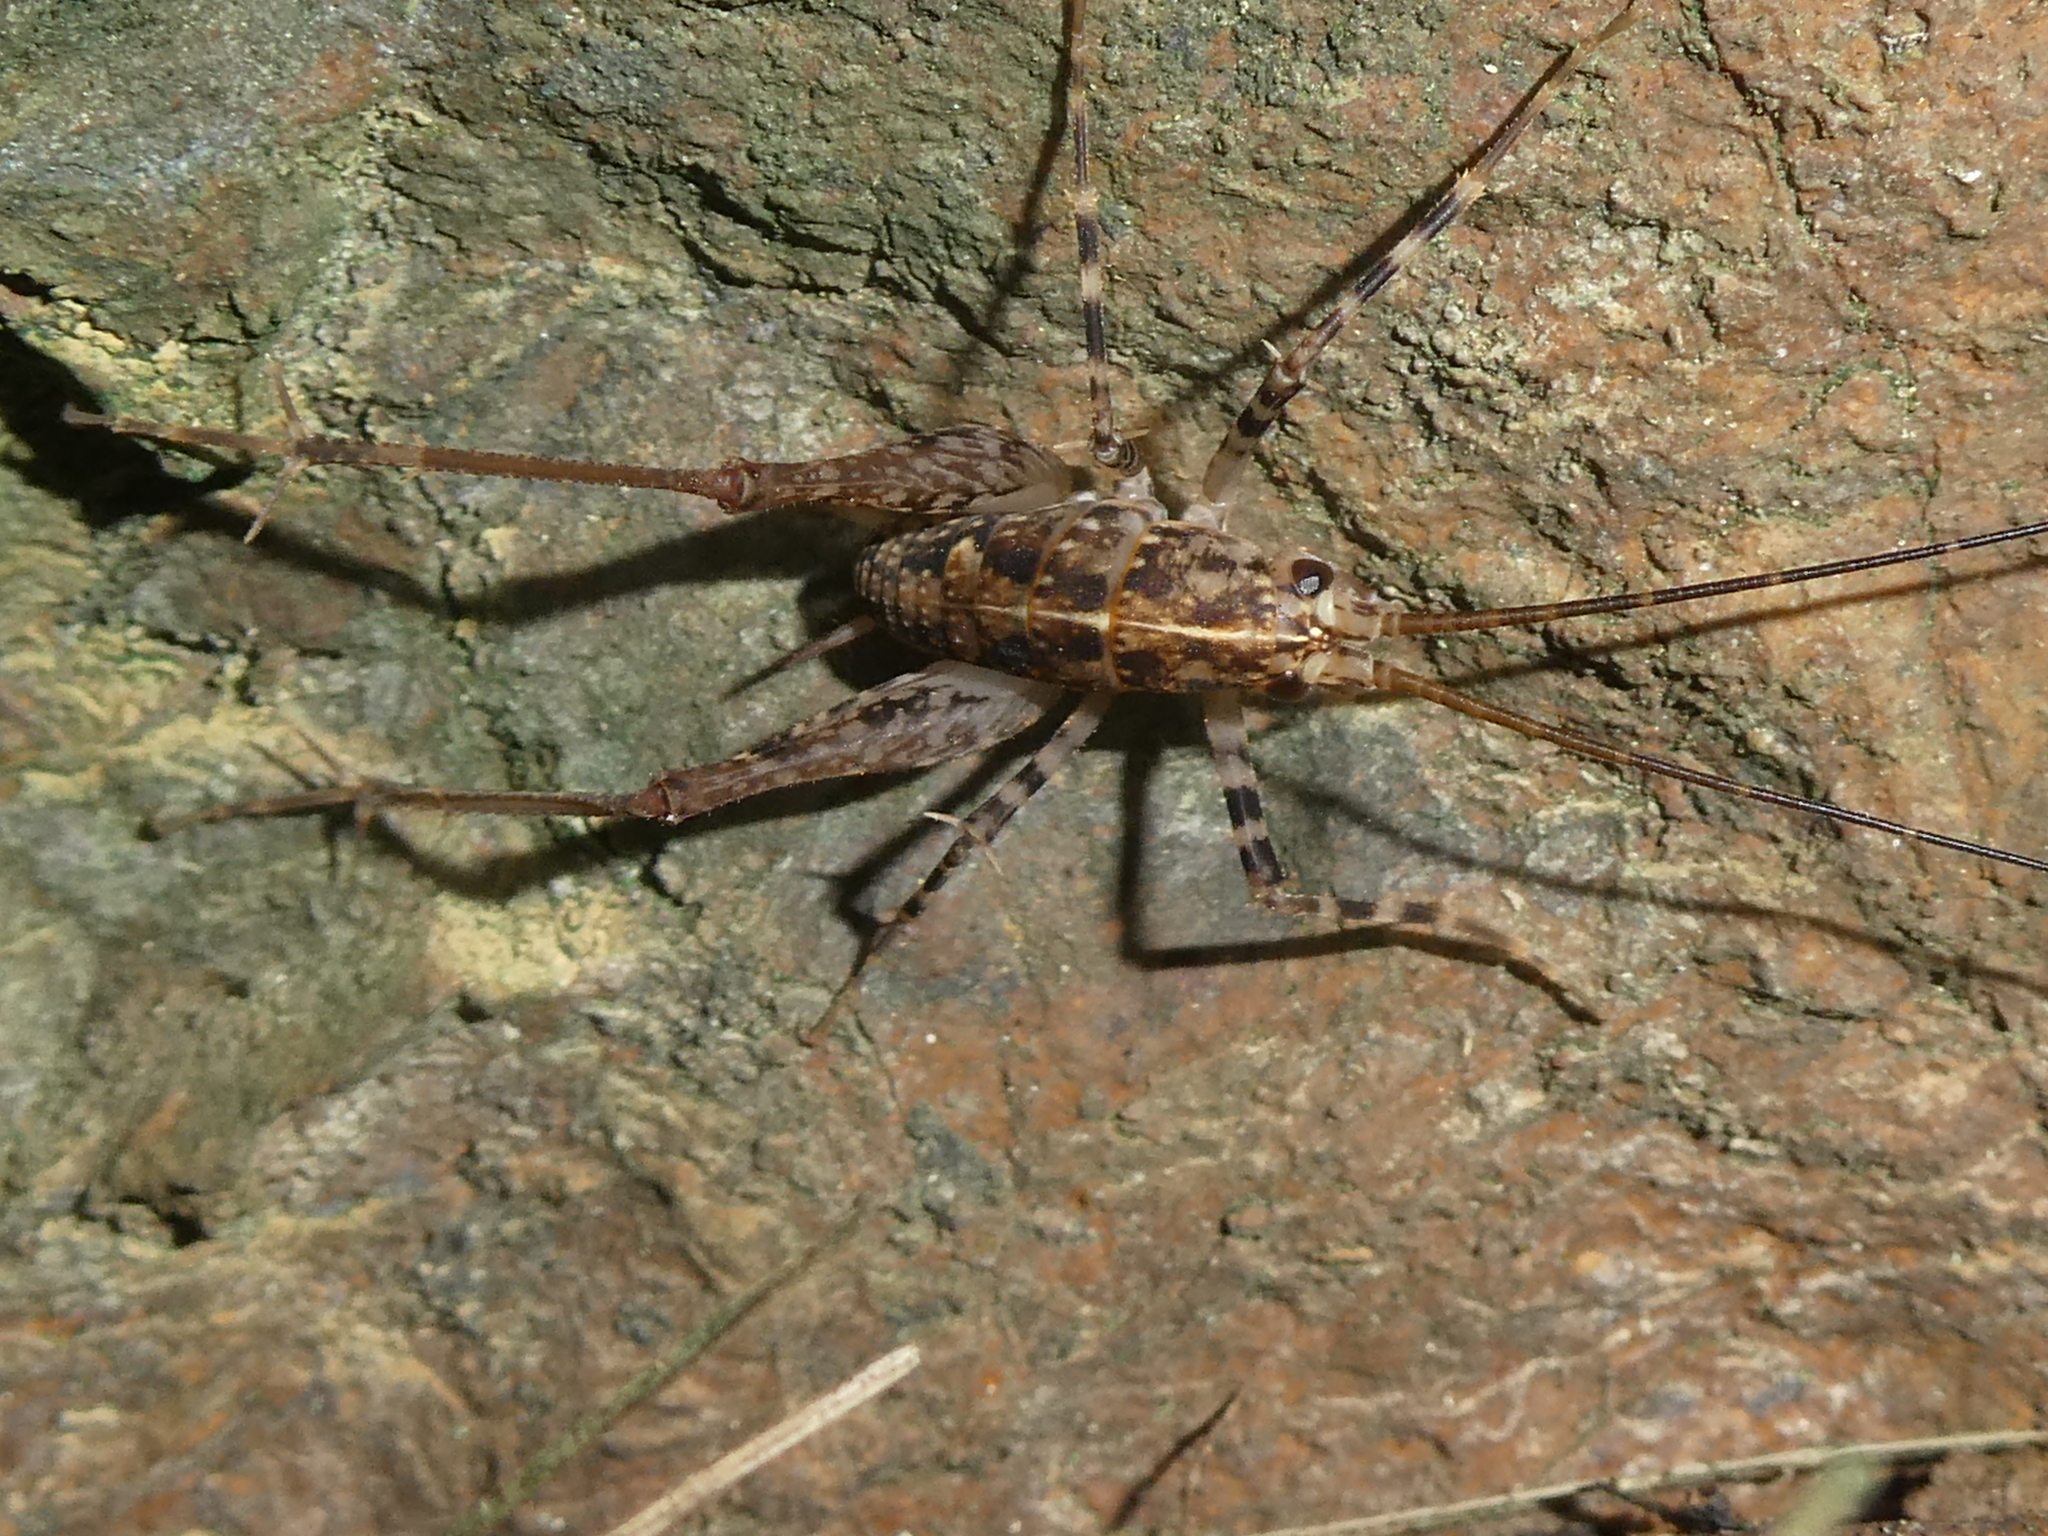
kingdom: Animalia
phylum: Arthropoda
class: Insecta
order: Orthoptera
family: Rhaphidophoridae
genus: Pleioplectron
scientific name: Pleioplectron auratum
